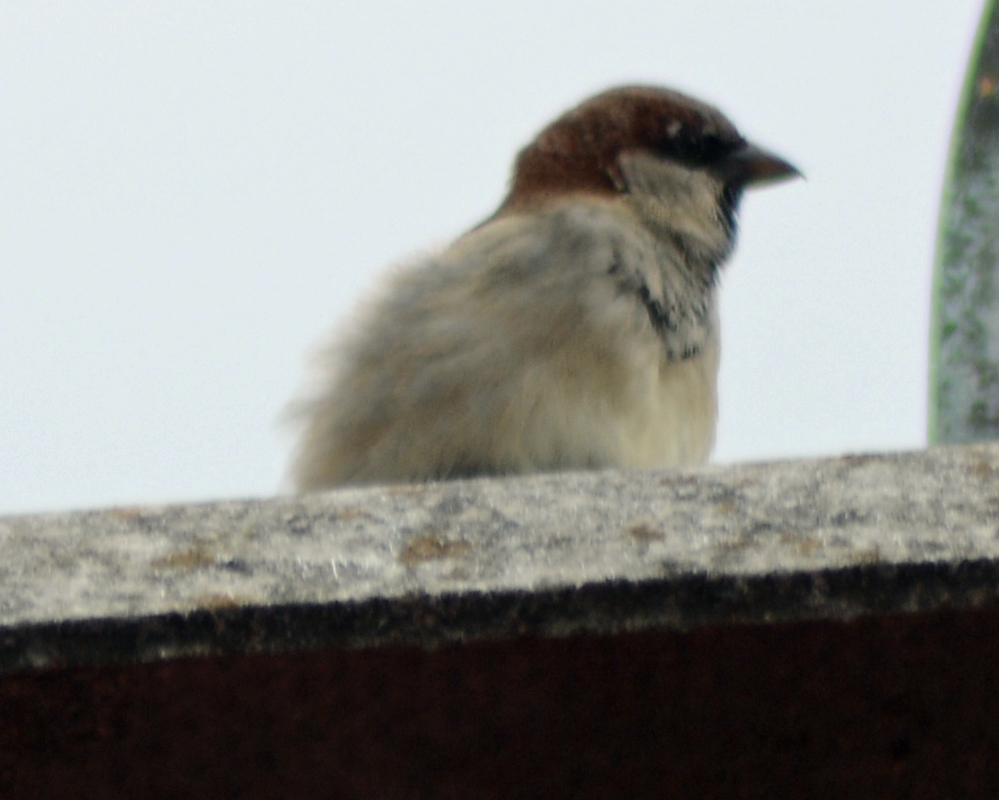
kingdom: Animalia
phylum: Chordata
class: Aves
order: Passeriformes
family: Passeridae
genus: Passer
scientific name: Passer domesticus
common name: House sparrow
